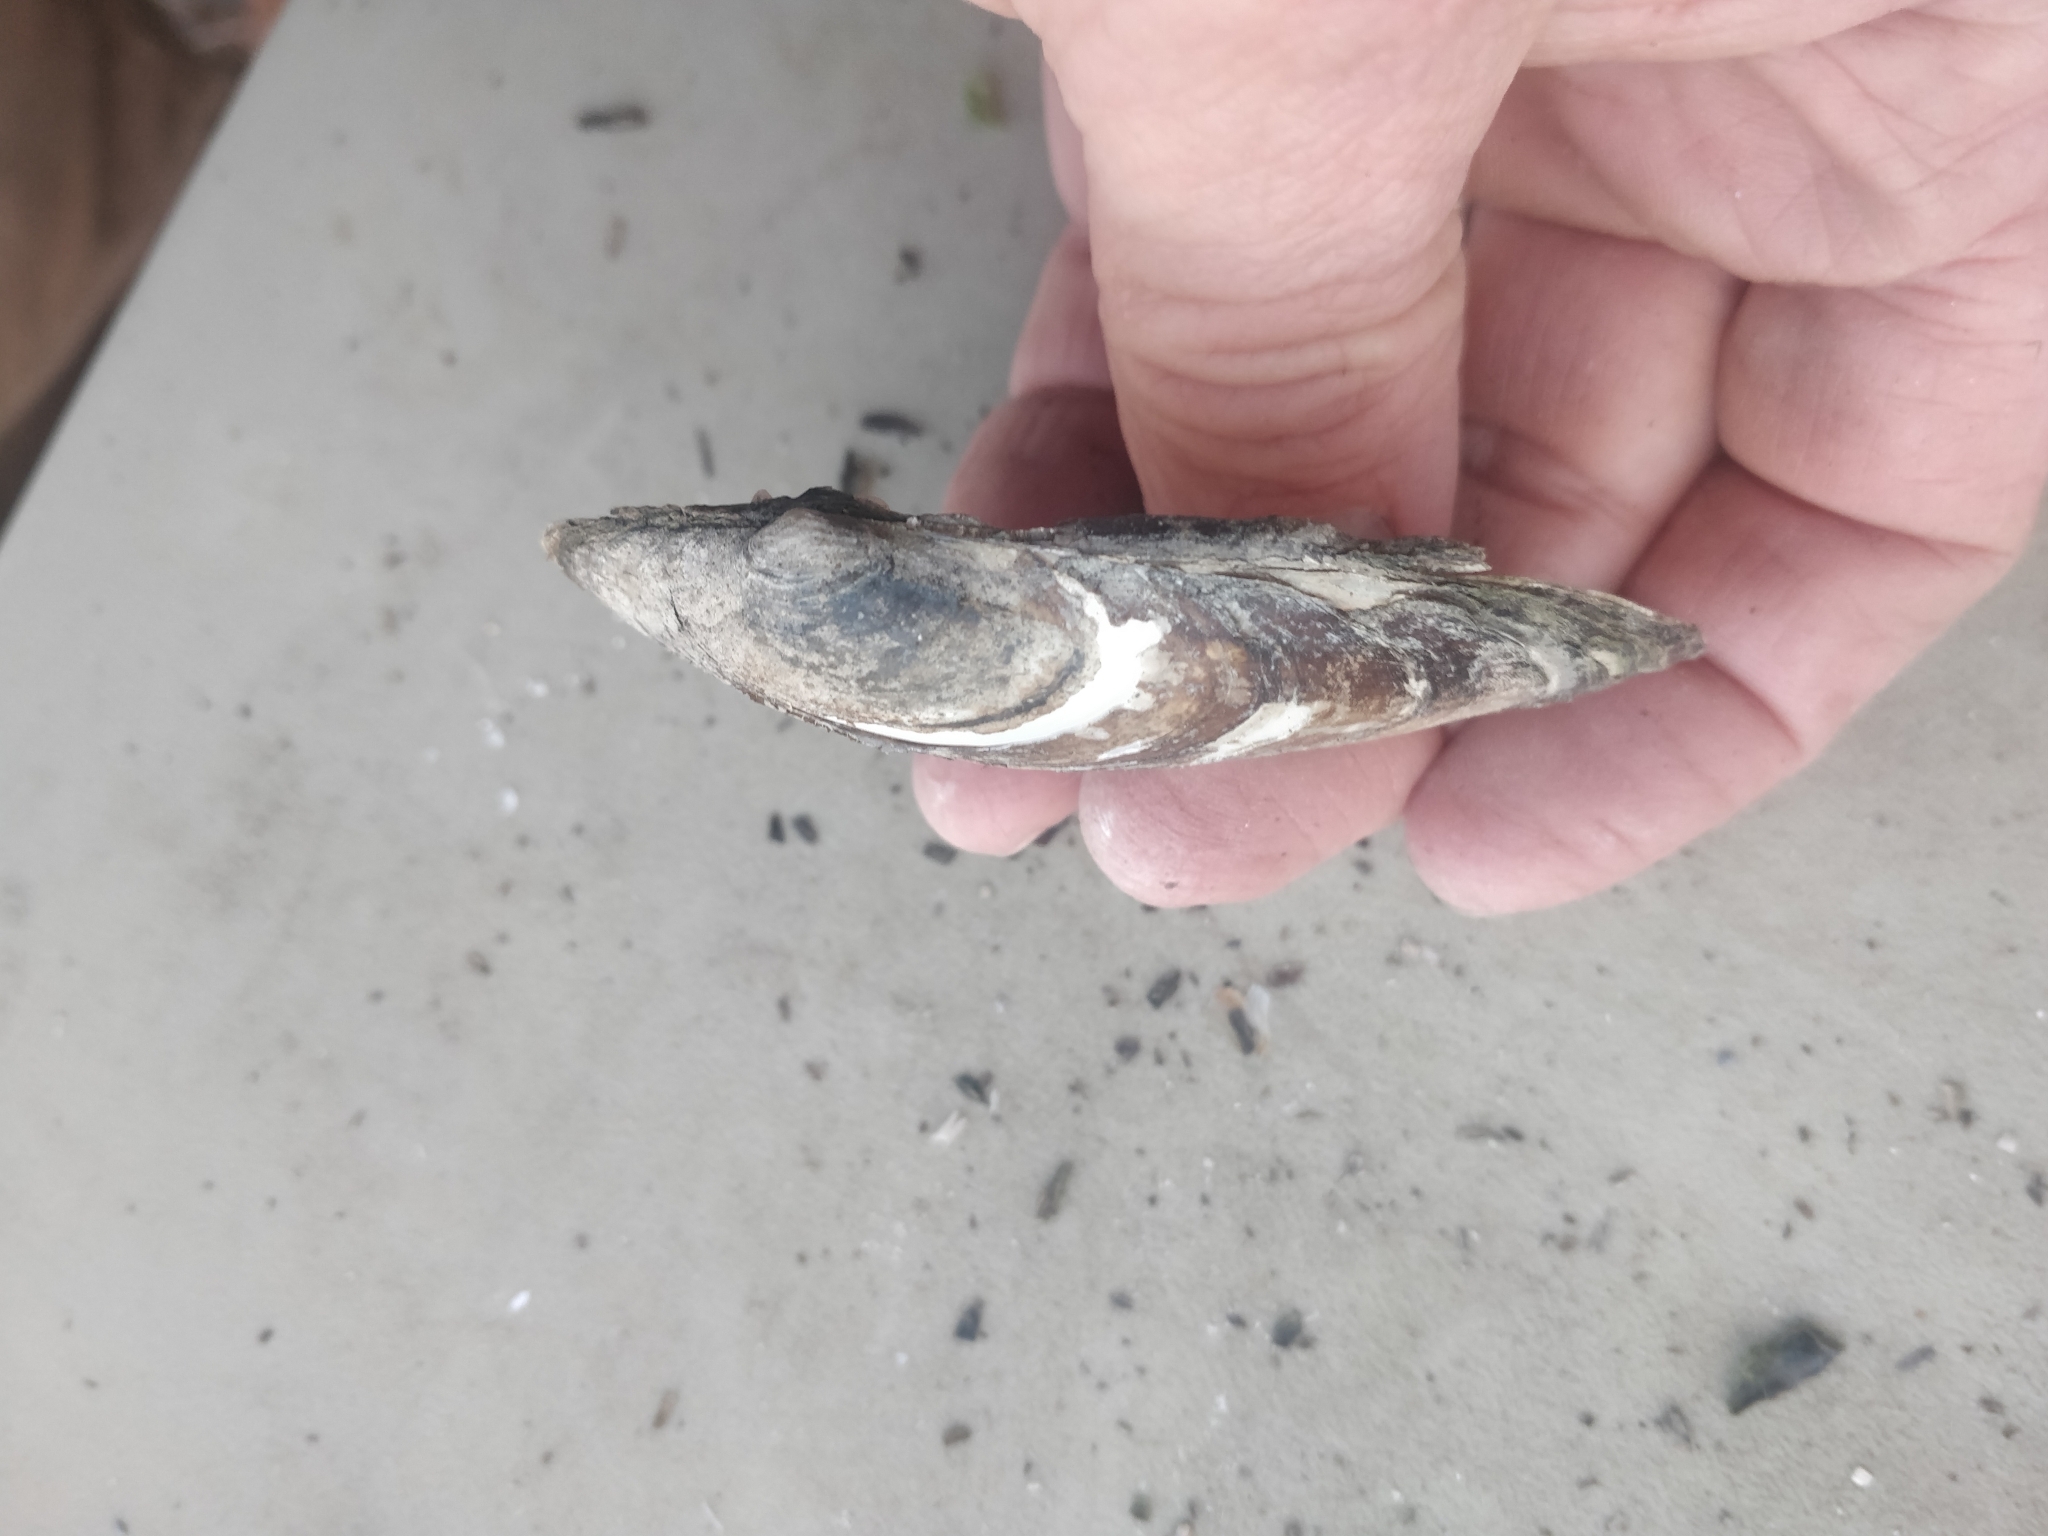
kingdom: Animalia
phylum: Mollusca
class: Bivalvia
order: Unionida
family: Unionidae
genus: Lampsilis
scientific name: Lampsilis siliquoidea
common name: Fatmucket
